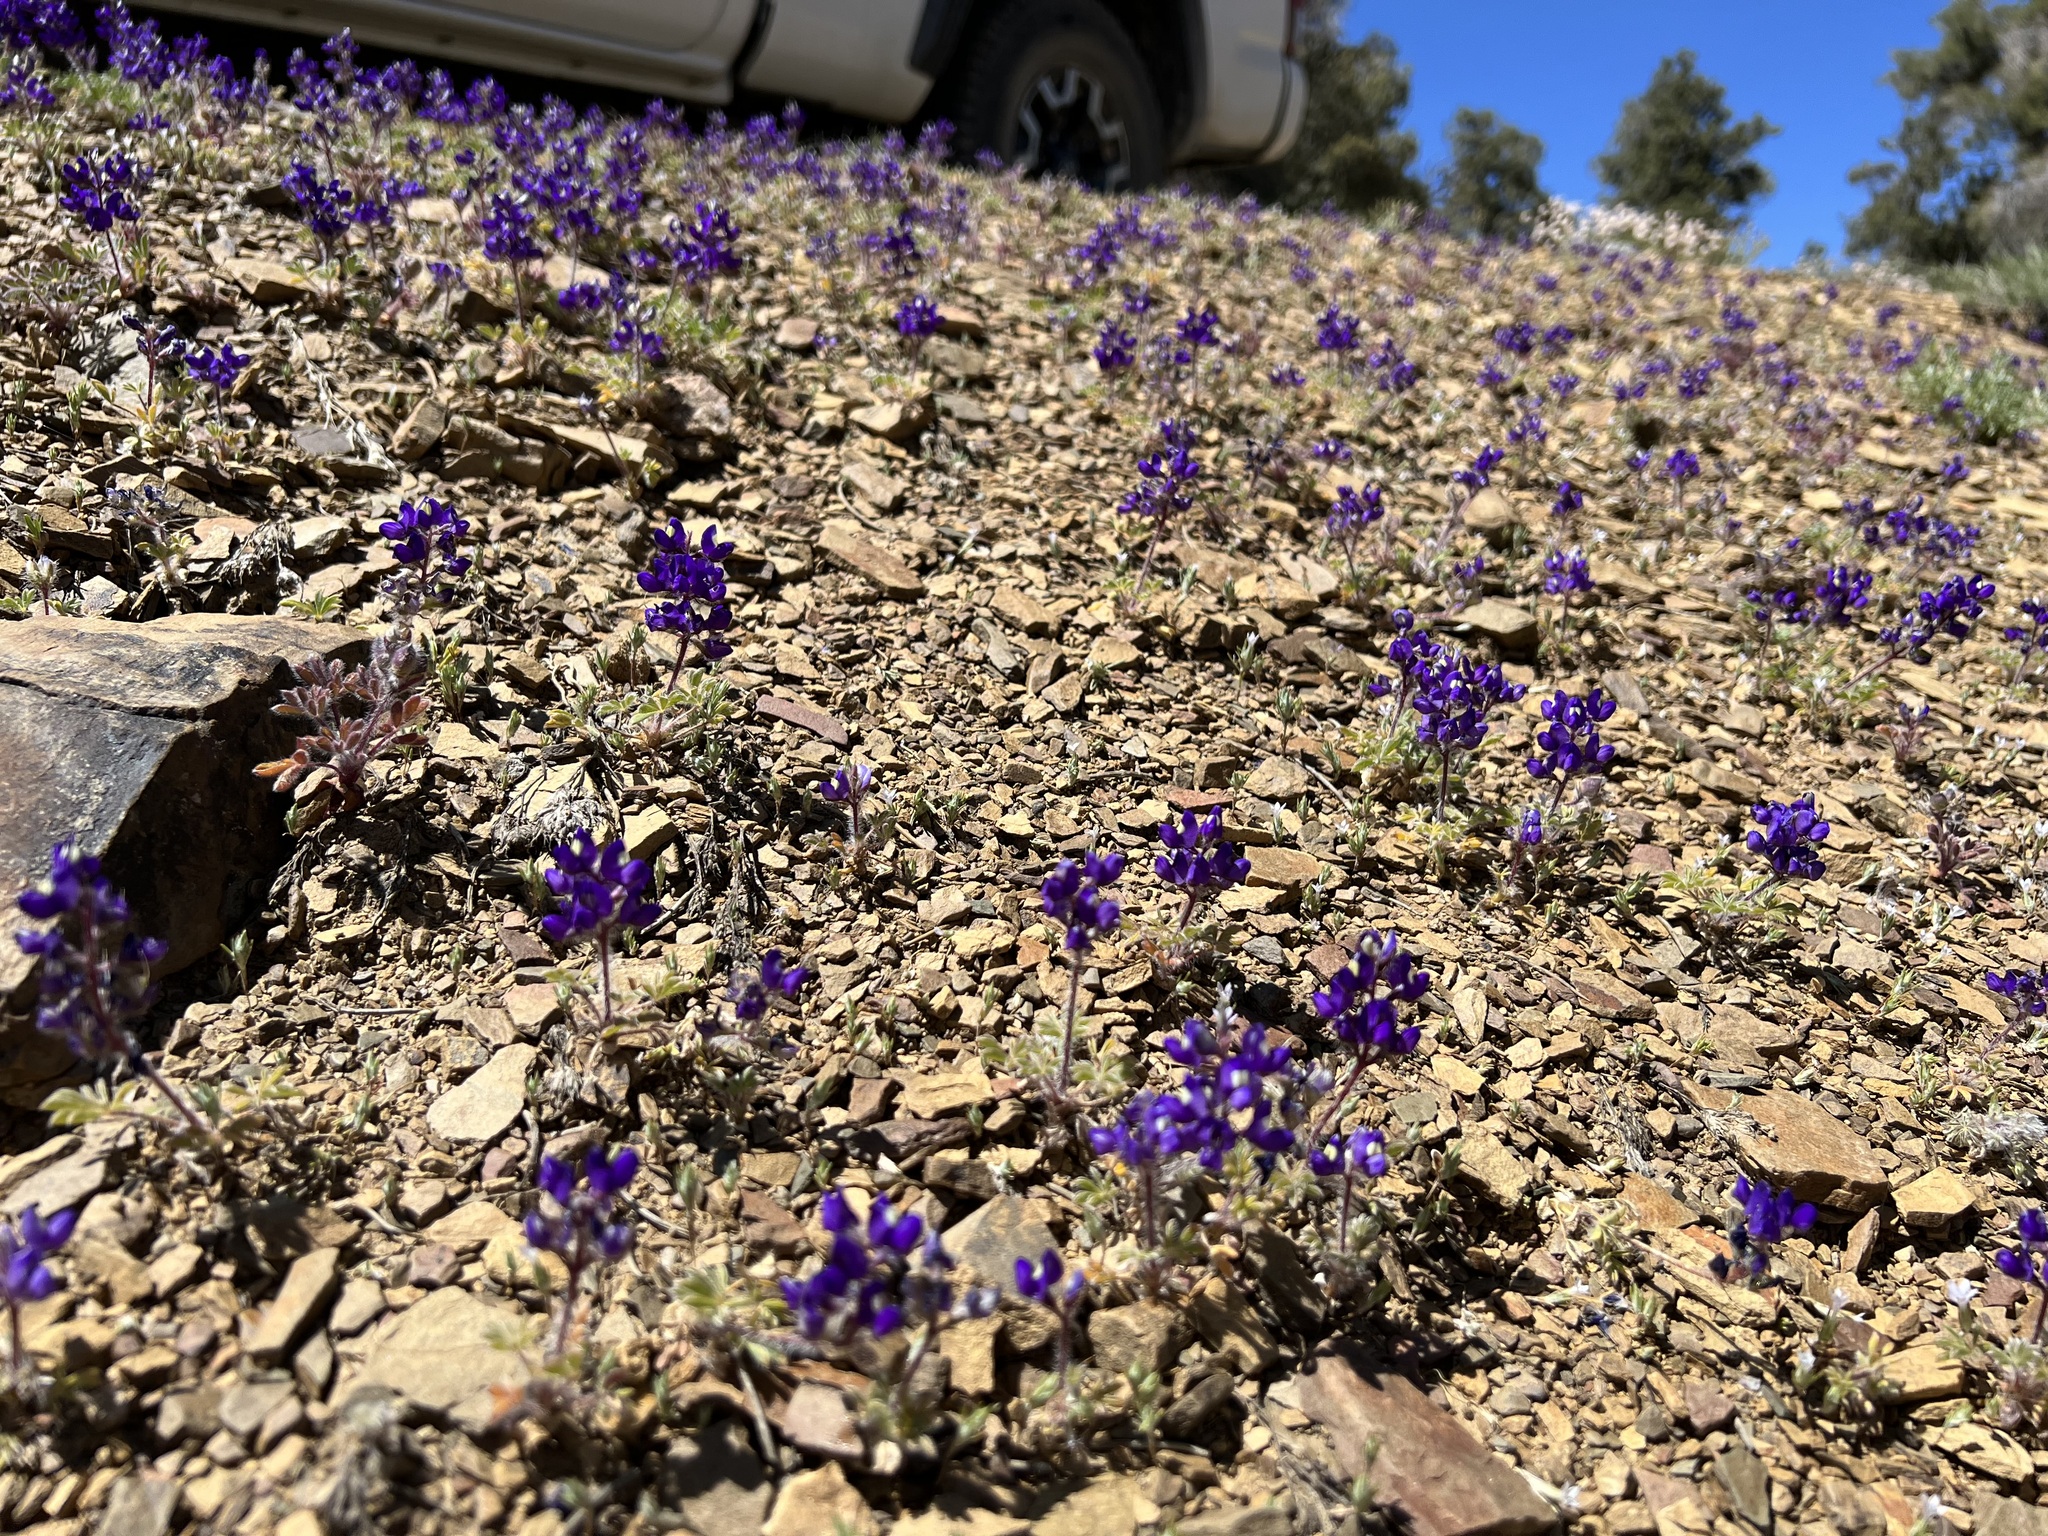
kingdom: Plantae
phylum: Tracheophyta
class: Magnoliopsida
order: Fabales
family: Fabaceae
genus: Lupinus
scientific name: Lupinus flavoculatus
